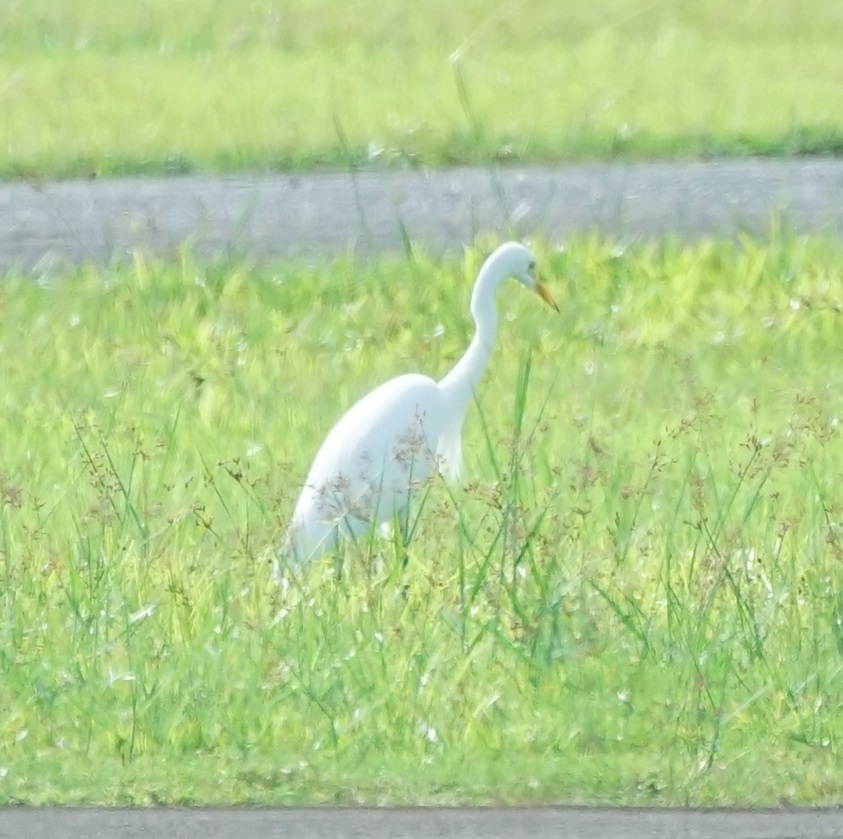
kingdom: Animalia
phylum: Chordata
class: Aves
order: Pelecaniformes
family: Ardeidae
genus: Egretta
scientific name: Egretta intermedia
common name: Intermediate egret
